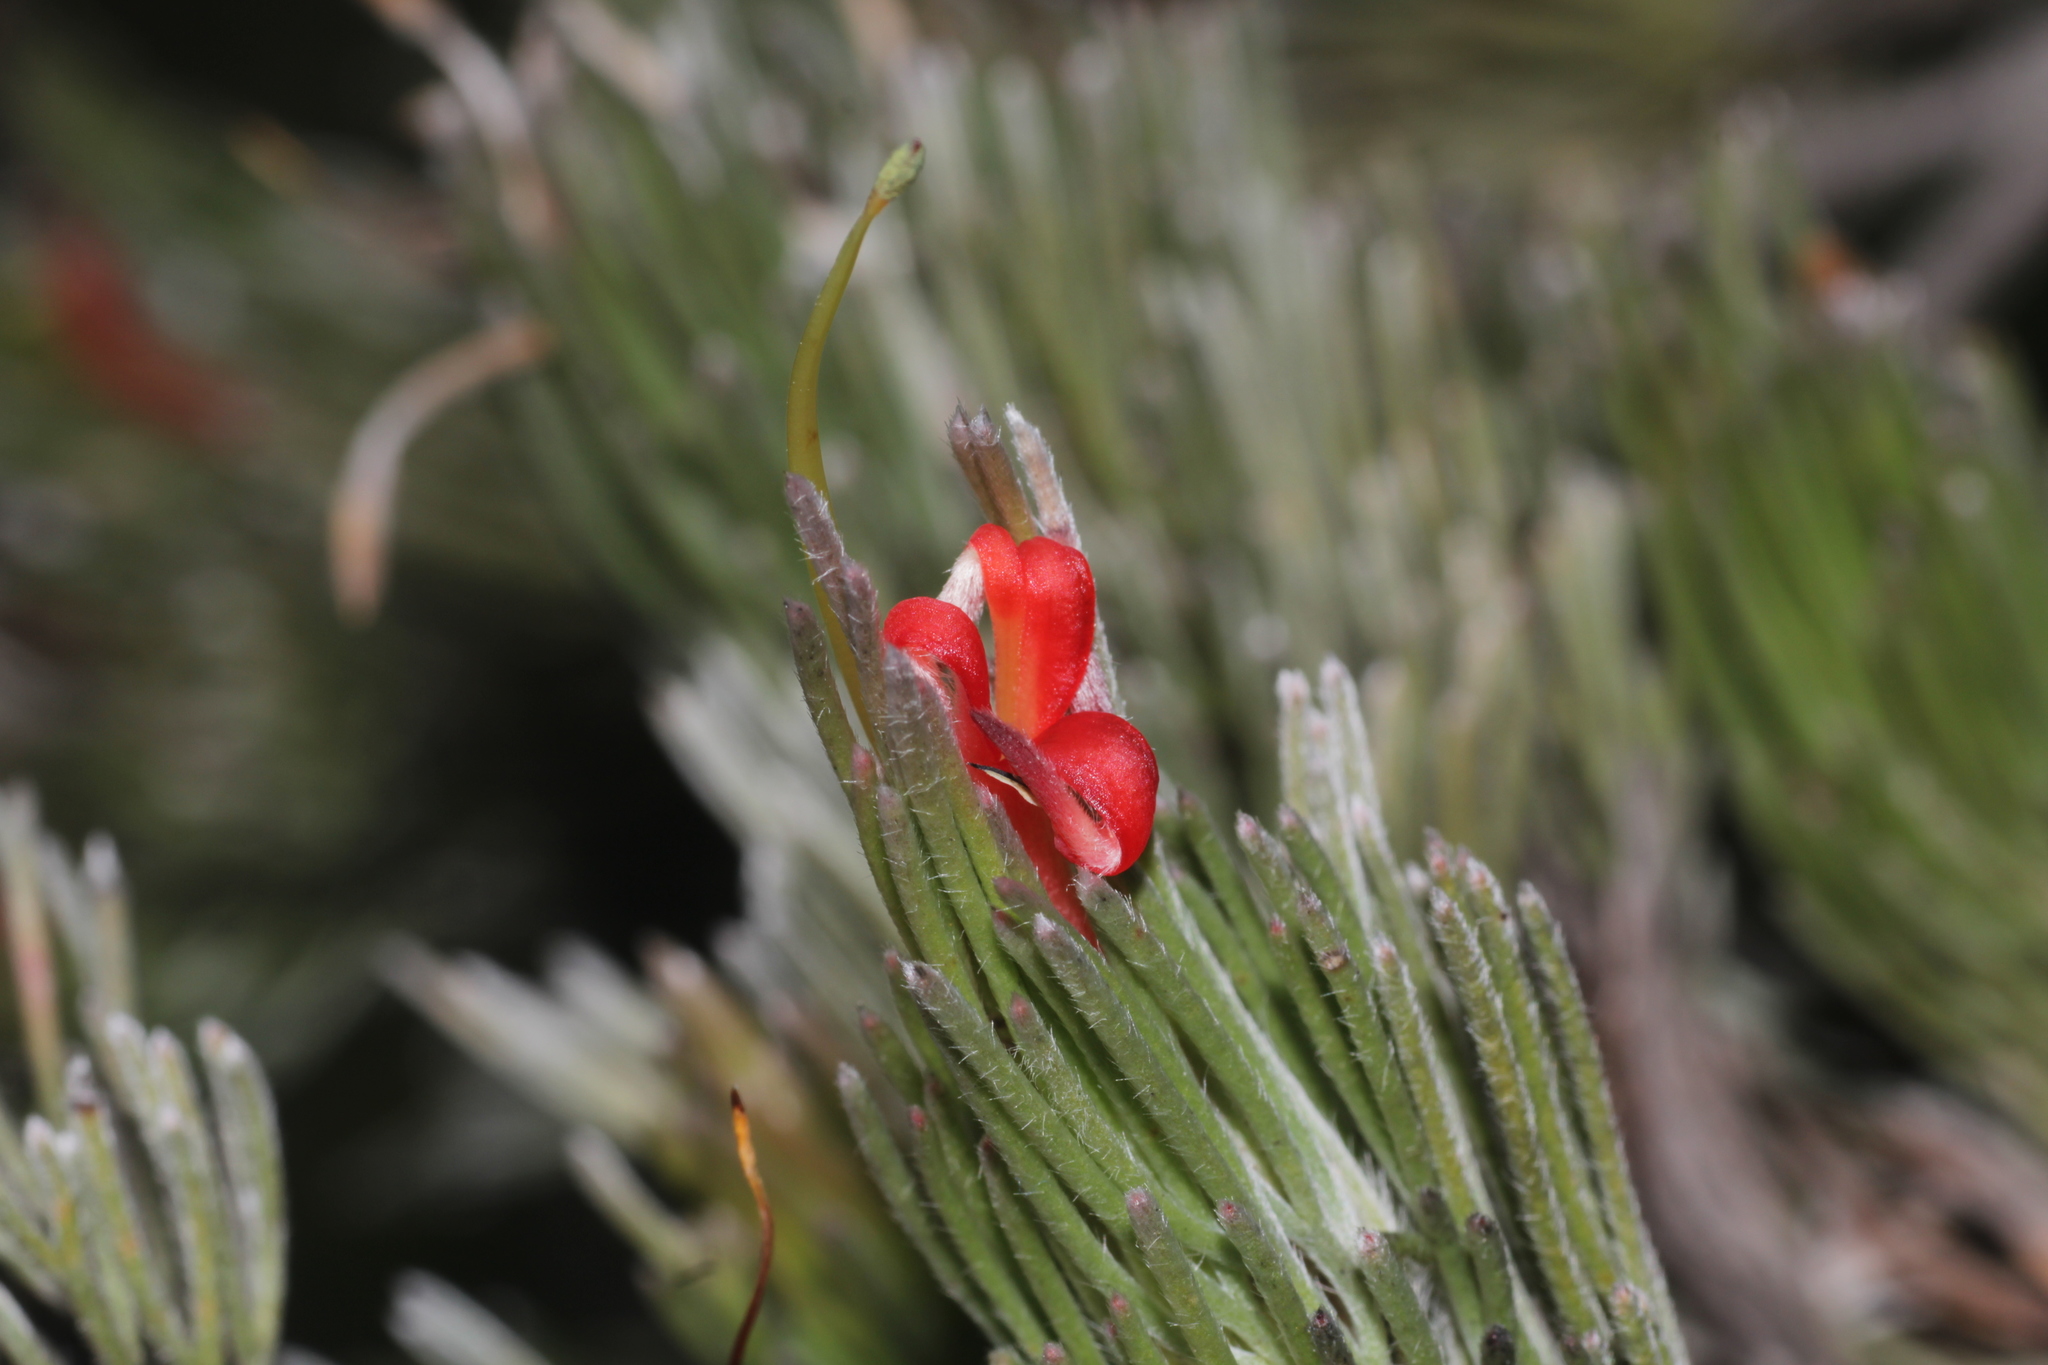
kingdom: Plantae
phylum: Tracheophyta
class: Magnoliopsida
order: Proteales
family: Proteaceae
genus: Adenanthos
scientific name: Adenanthos sericeus
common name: Coastal woollybush
